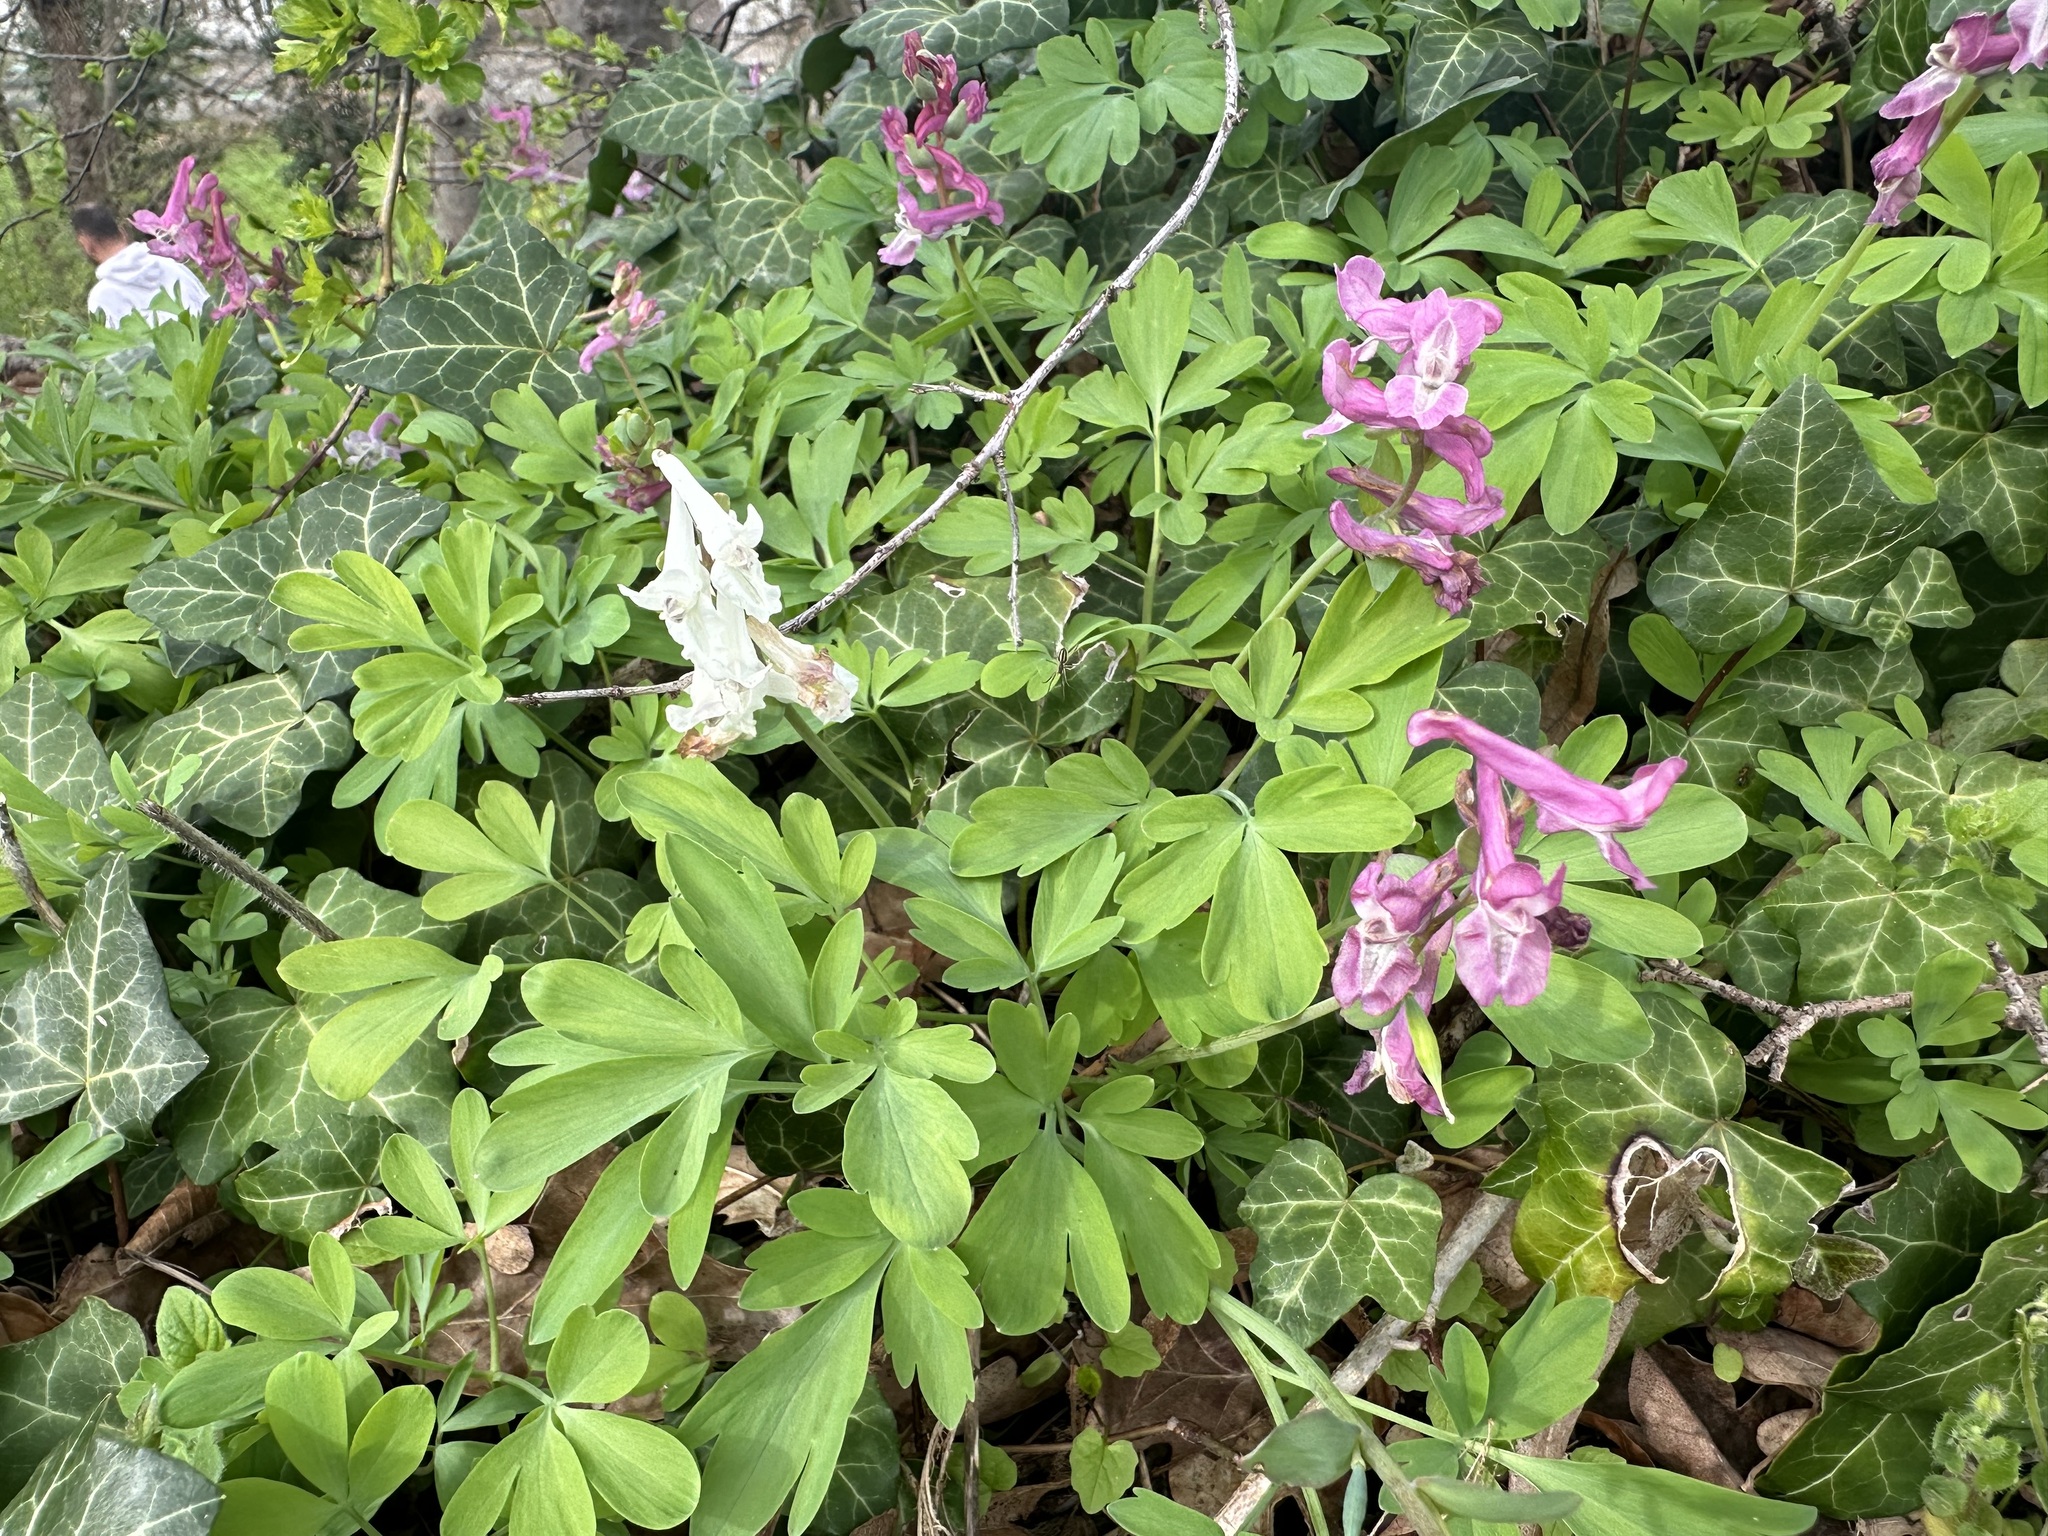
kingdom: Plantae
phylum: Tracheophyta
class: Magnoliopsida
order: Ranunculales
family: Papaveraceae
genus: Corydalis
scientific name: Corydalis cava
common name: Hollowroot
